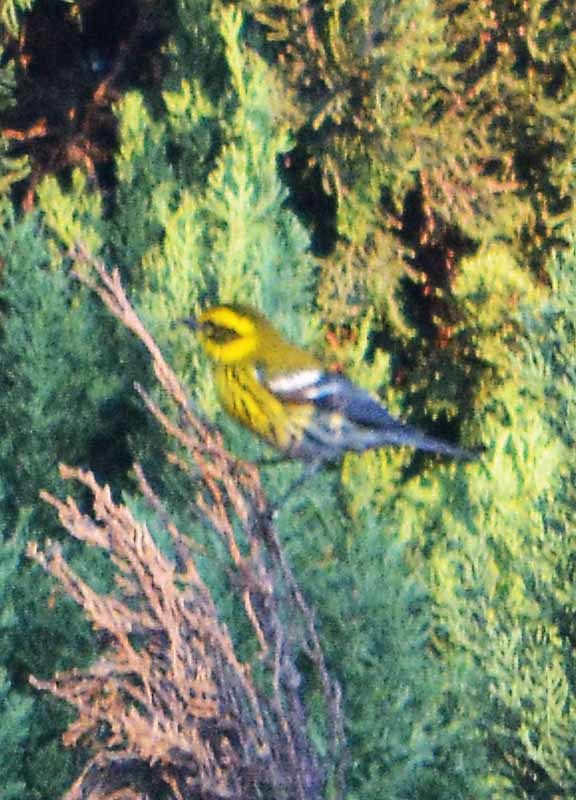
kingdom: Animalia
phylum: Chordata
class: Aves
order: Passeriformes
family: Parulidae
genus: Setophaga
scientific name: Setophaga townsendi
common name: Townsend's warbler
